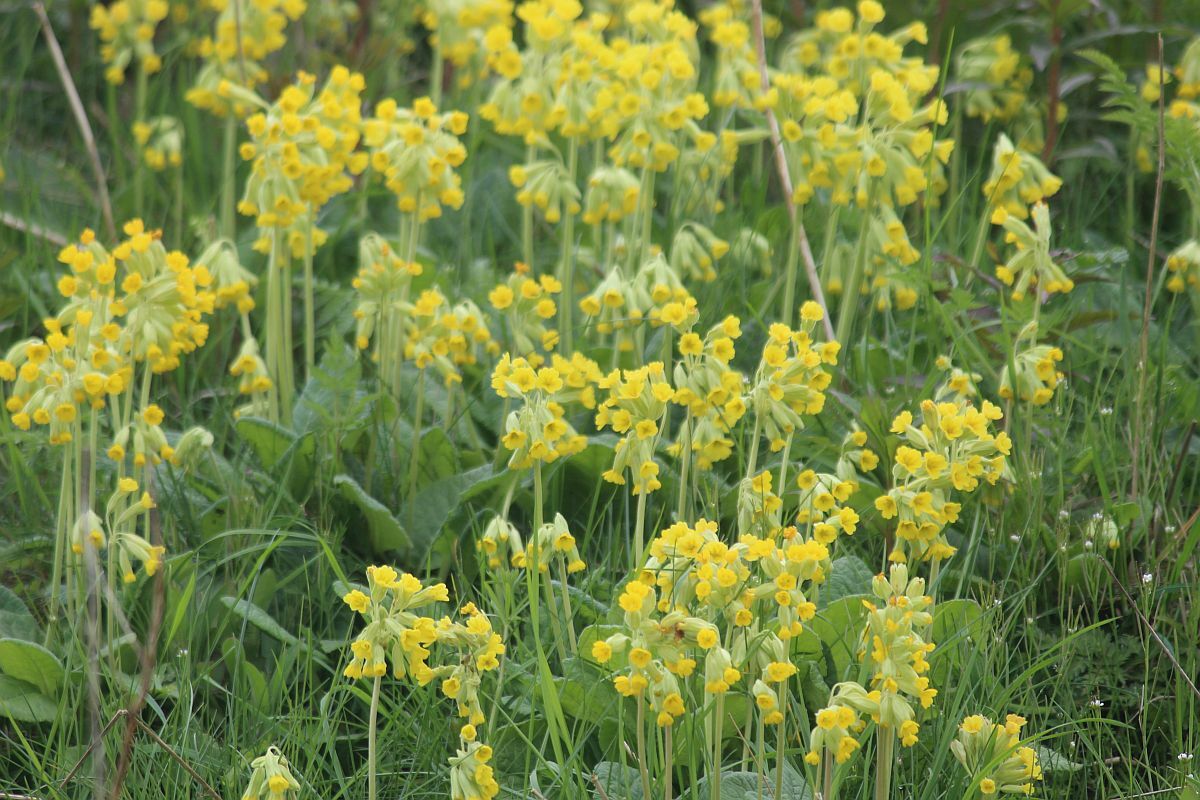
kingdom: Plantae
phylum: Tracheophyta
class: Magnoliopsida
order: Ericales
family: Primulaceae
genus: Primula
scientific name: Primula veris
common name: Cowslip
